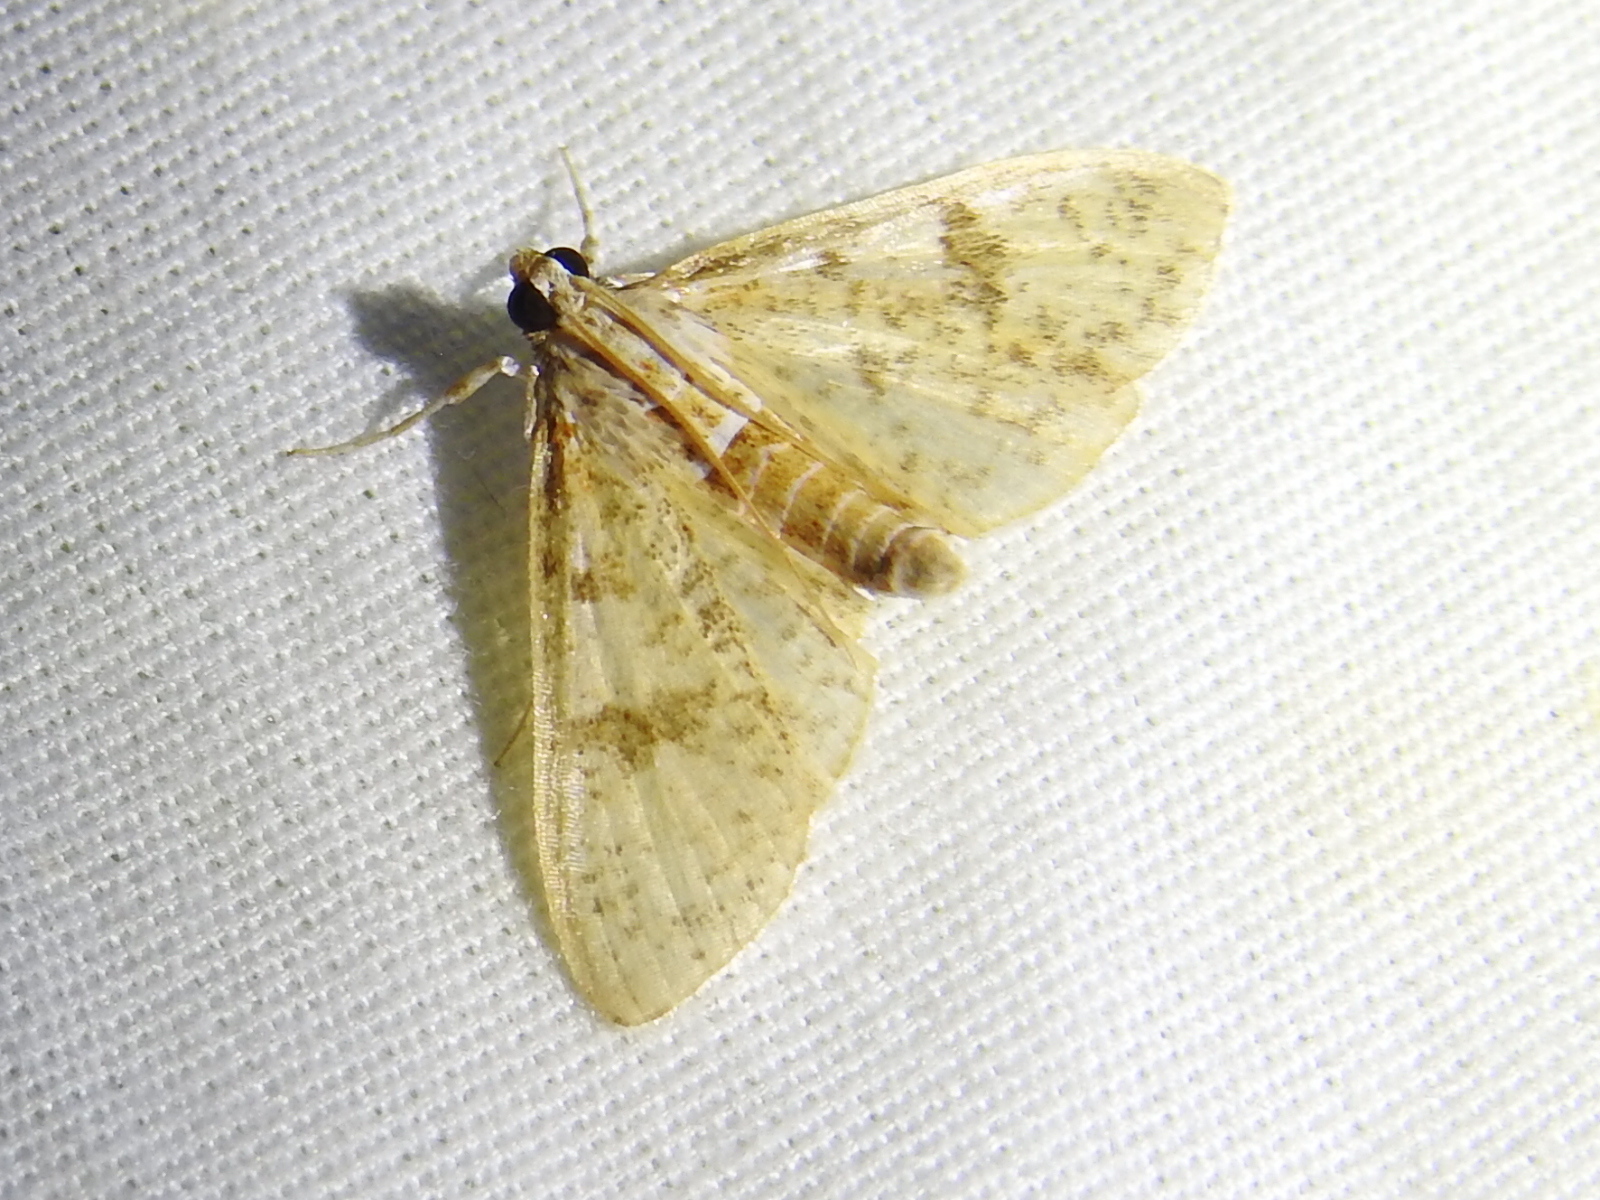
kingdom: Animalia
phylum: Arthropoda
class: Insecta
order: Lepidoptera
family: Crambidae
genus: Palpita
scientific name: Palpita freemanalis
